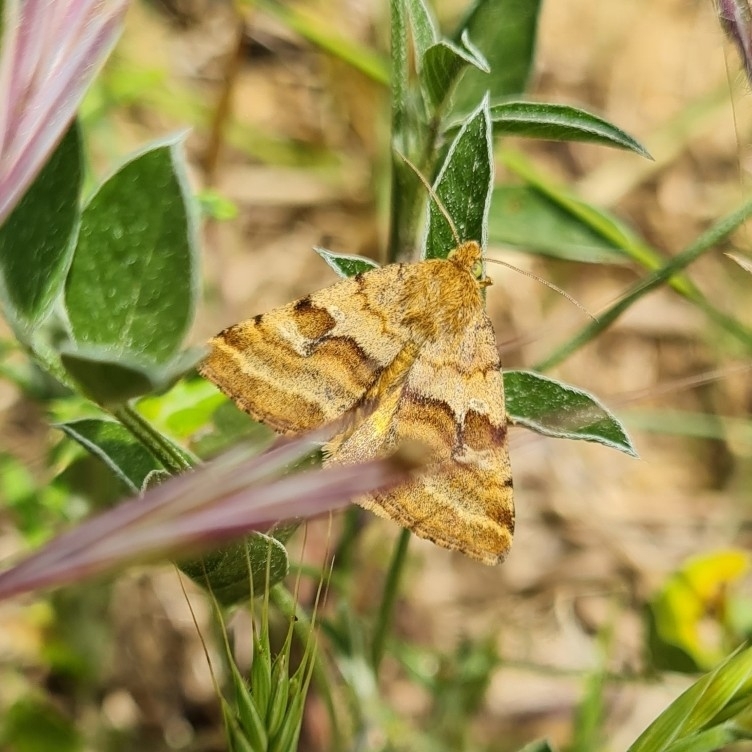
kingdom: Animalia
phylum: Arthropoda
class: Insecta
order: Lepidoptera
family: Noctuidae
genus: Synthymia
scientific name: Synthymia fixa
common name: Goldwing
